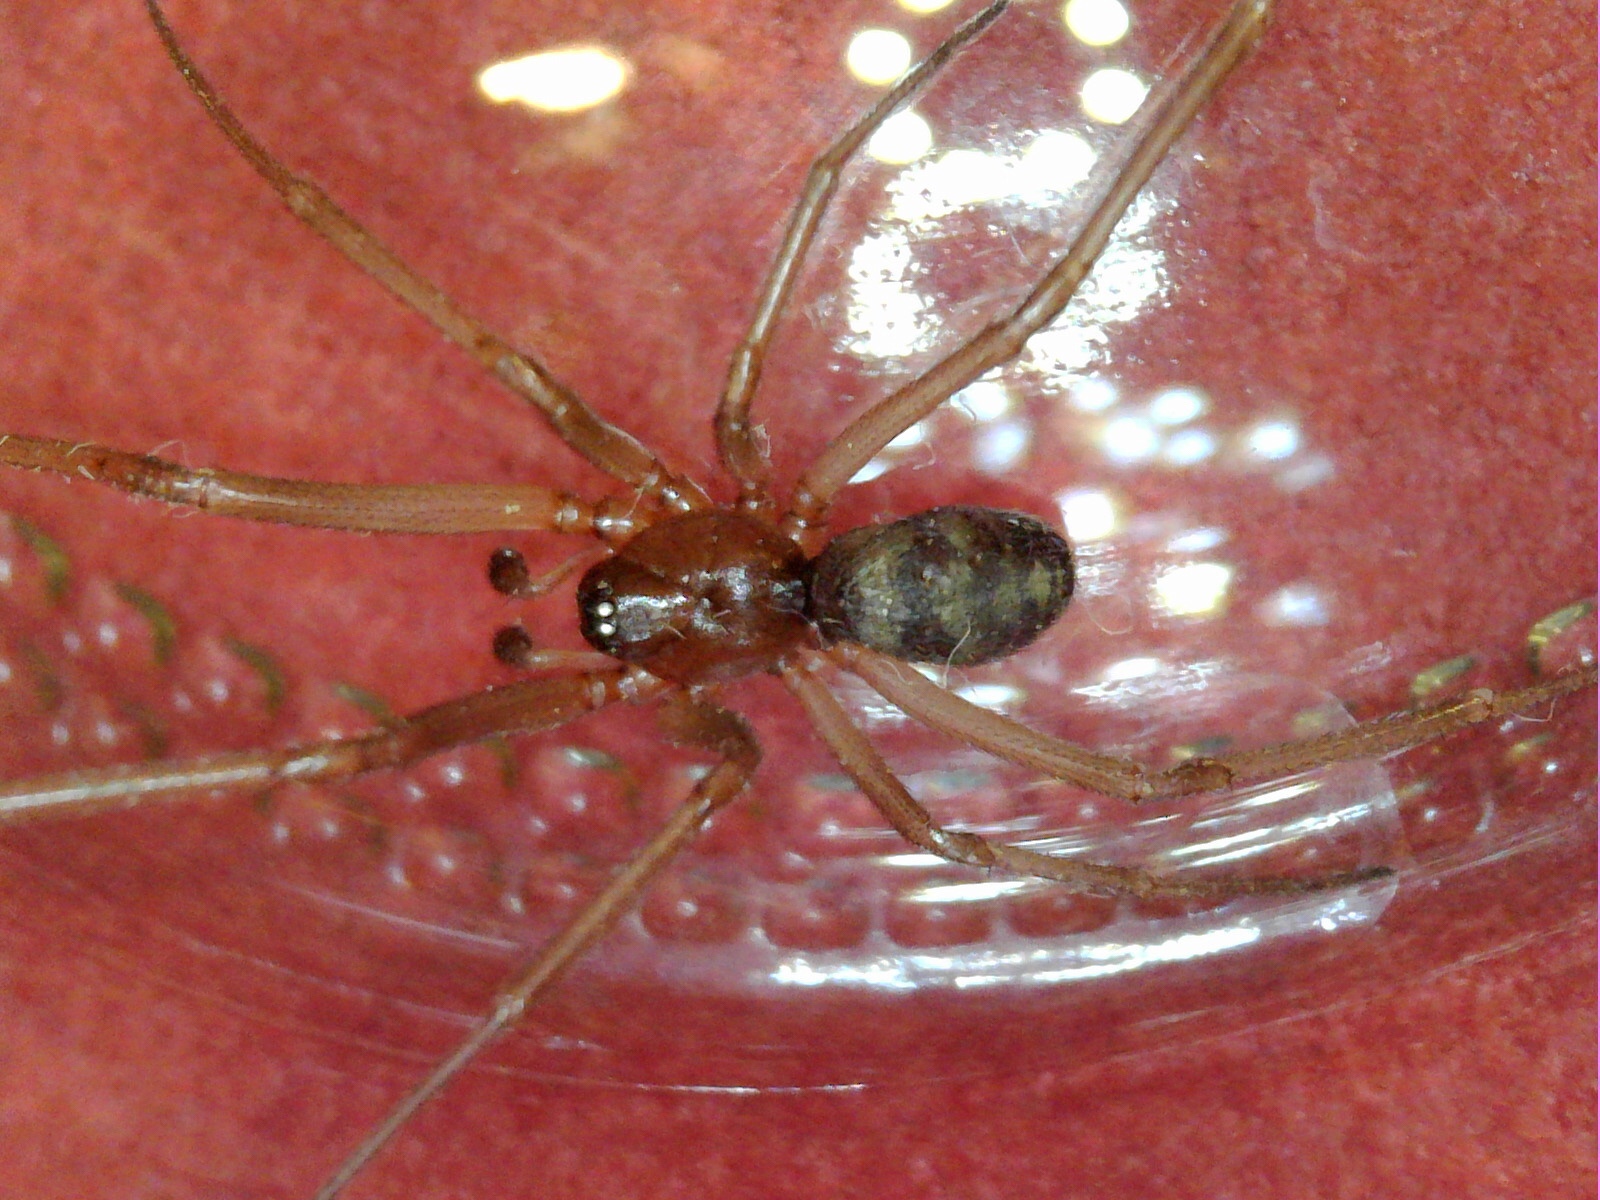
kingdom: Animalia
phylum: Arthropoda
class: Arachnida
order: Araneae
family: Theridiidae
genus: Steatoda
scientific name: Steatoda grossa
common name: False black widow
